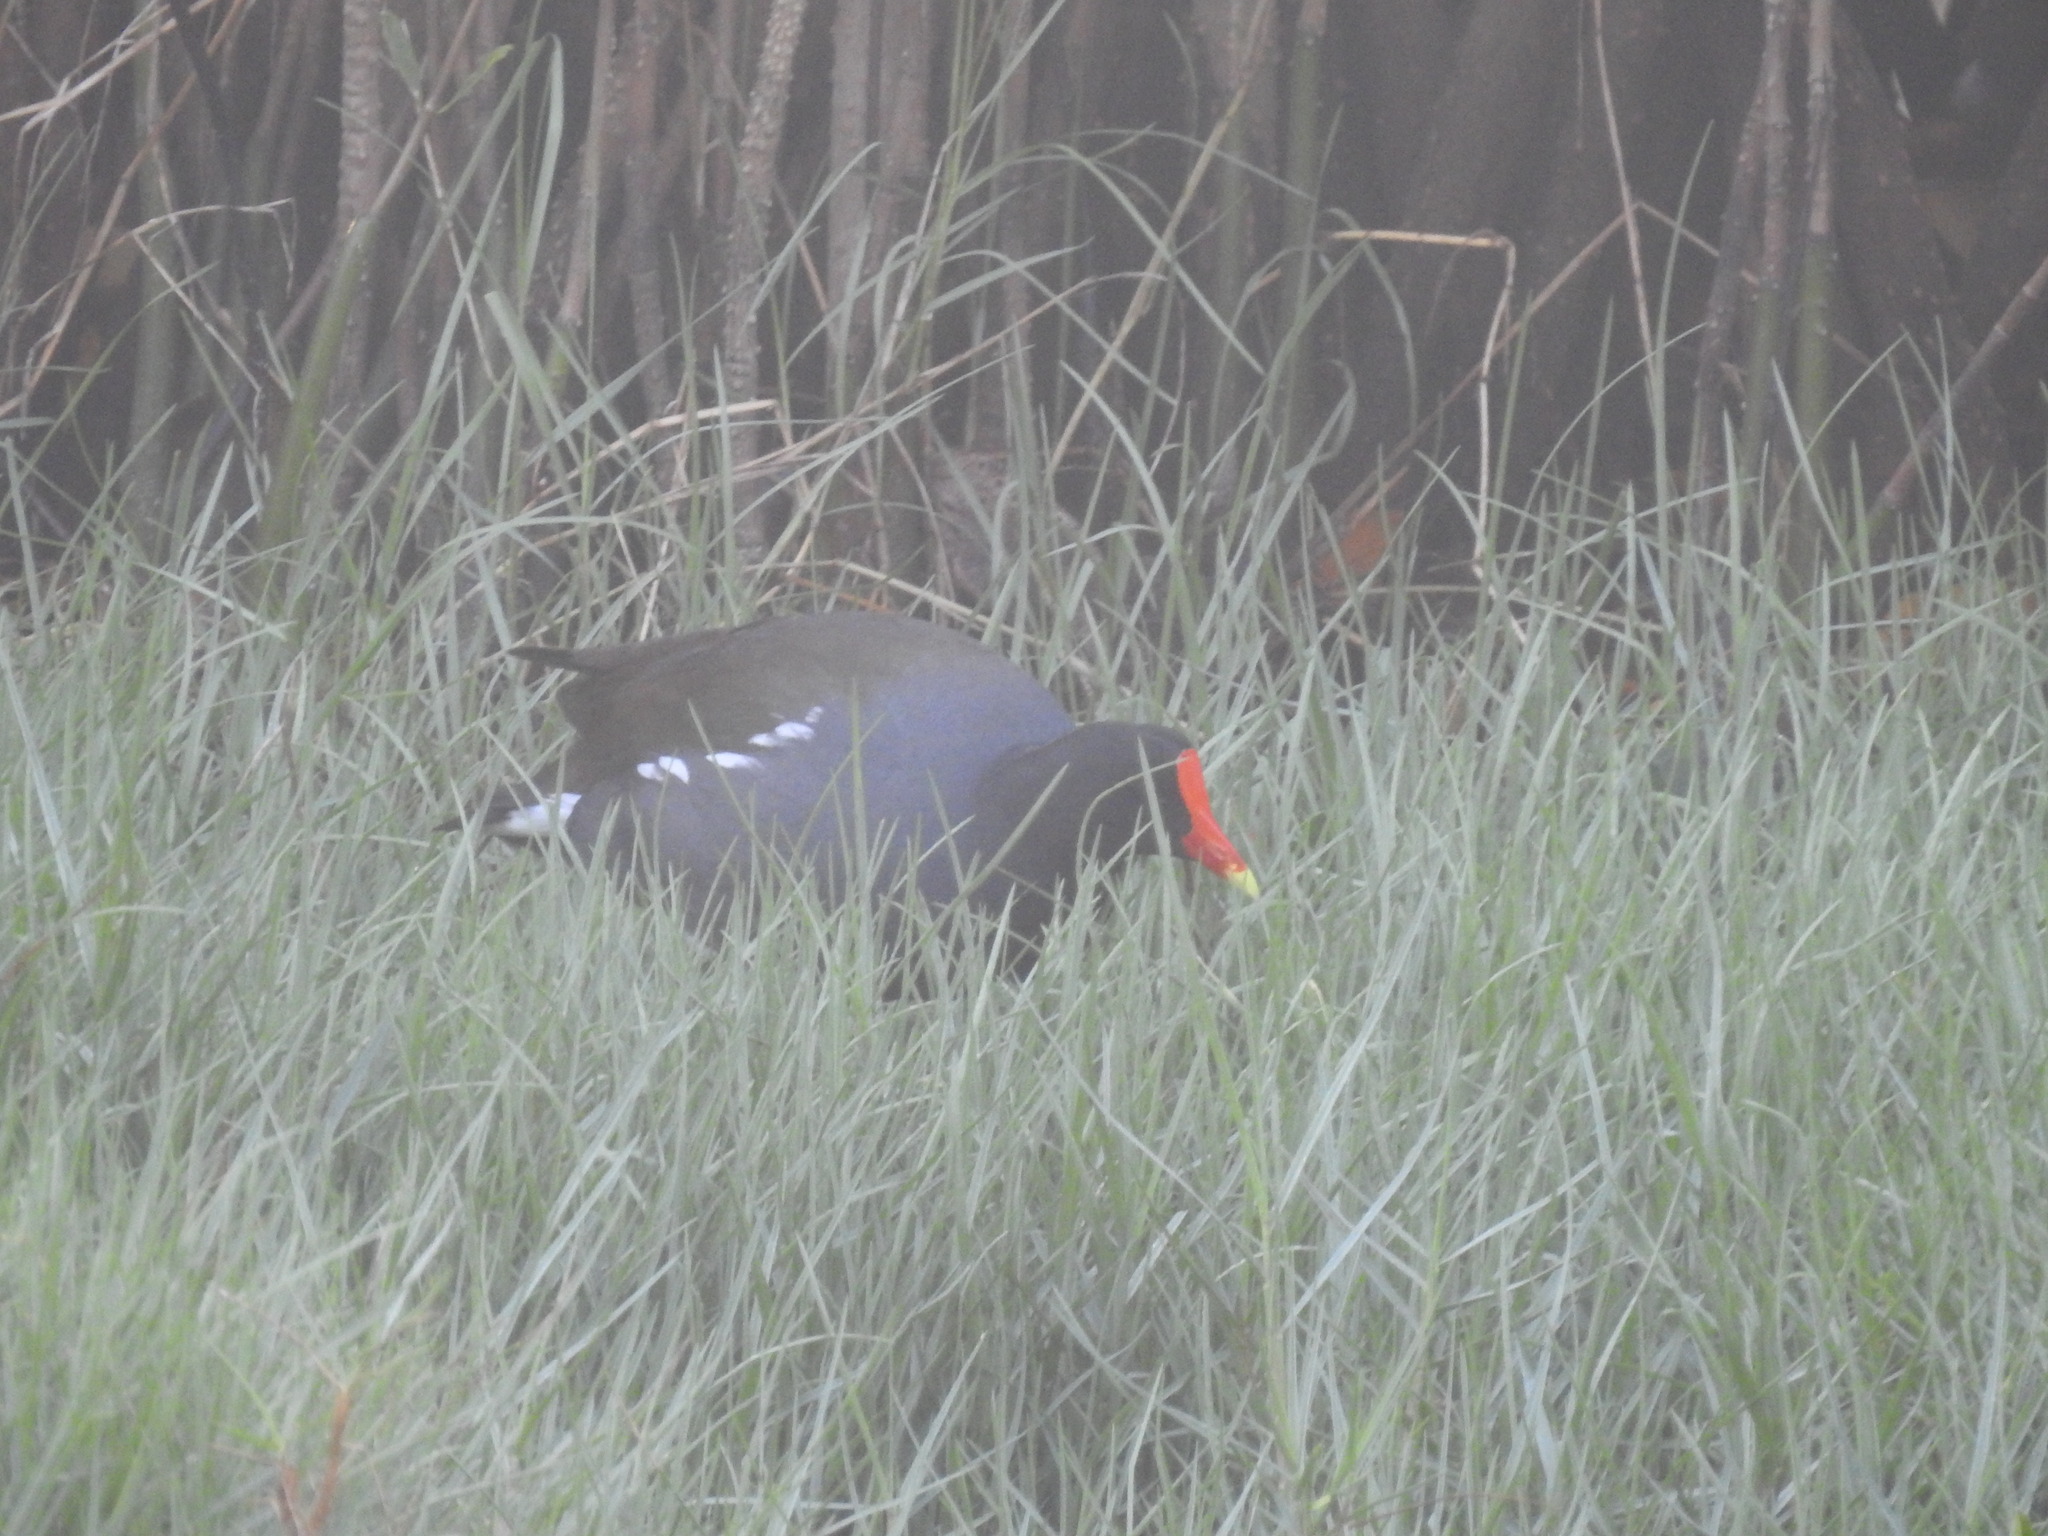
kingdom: Animalia
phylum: Chordata
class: Aves
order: Gruiformes
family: Rallidae
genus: Gallinula
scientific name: Gallinula chloropus
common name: Common moorhen
